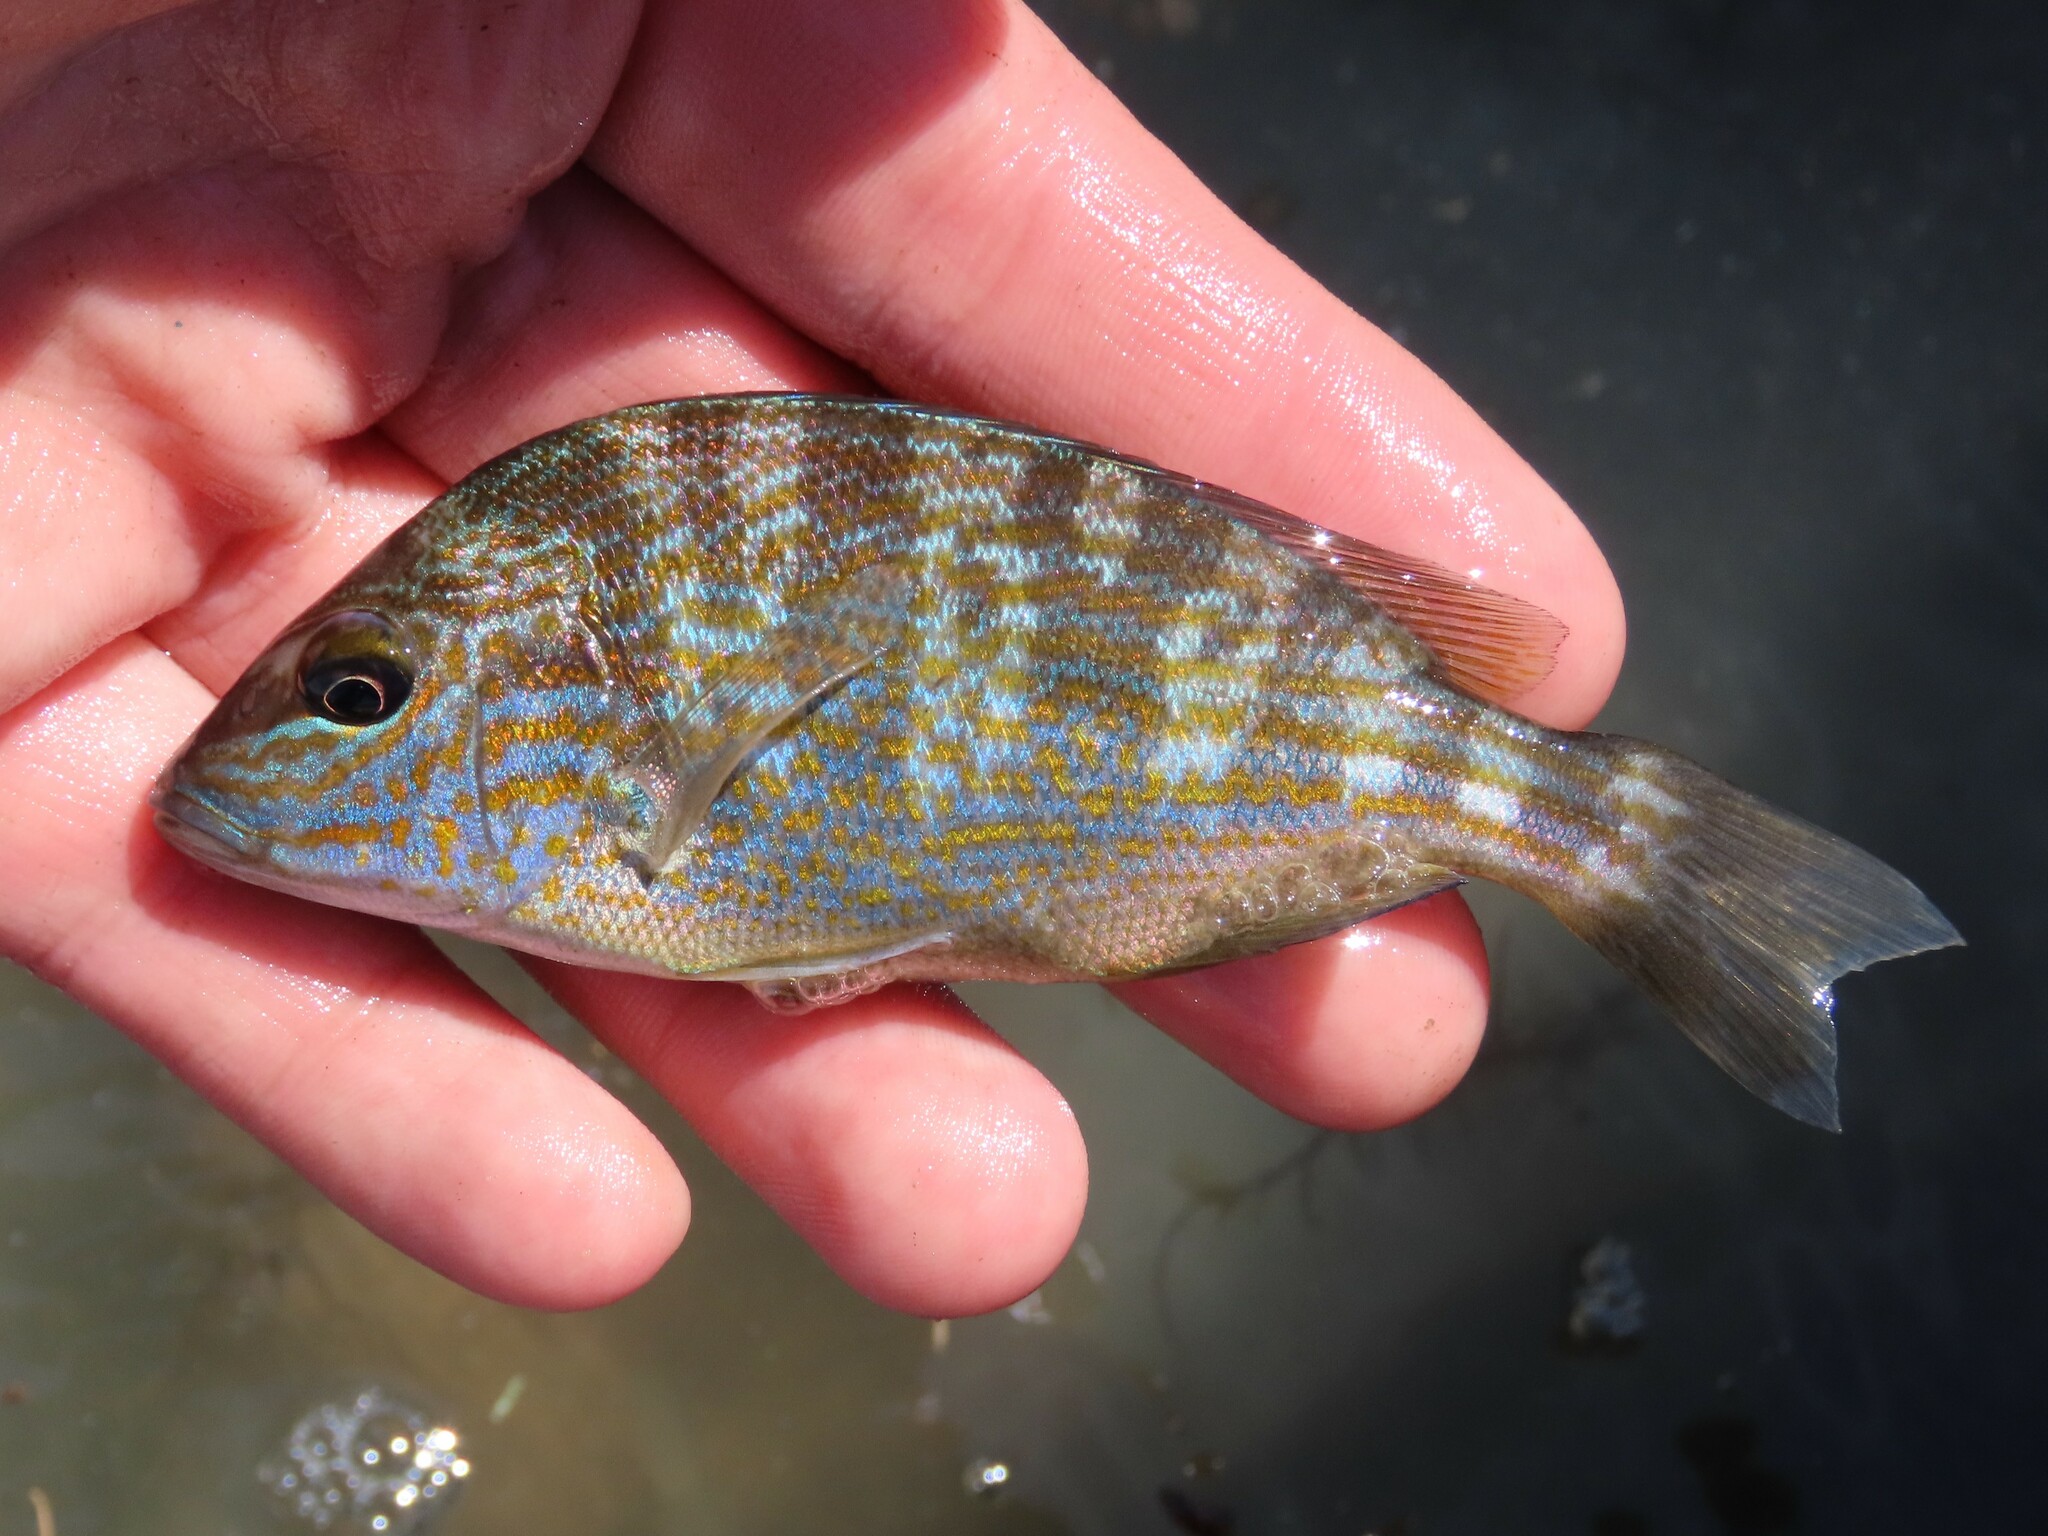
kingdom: Animalia
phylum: Chordata
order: Perciformes
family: Haemulidae
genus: Orthopristis
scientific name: Orthopristis chrysoptera
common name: Pigfish
